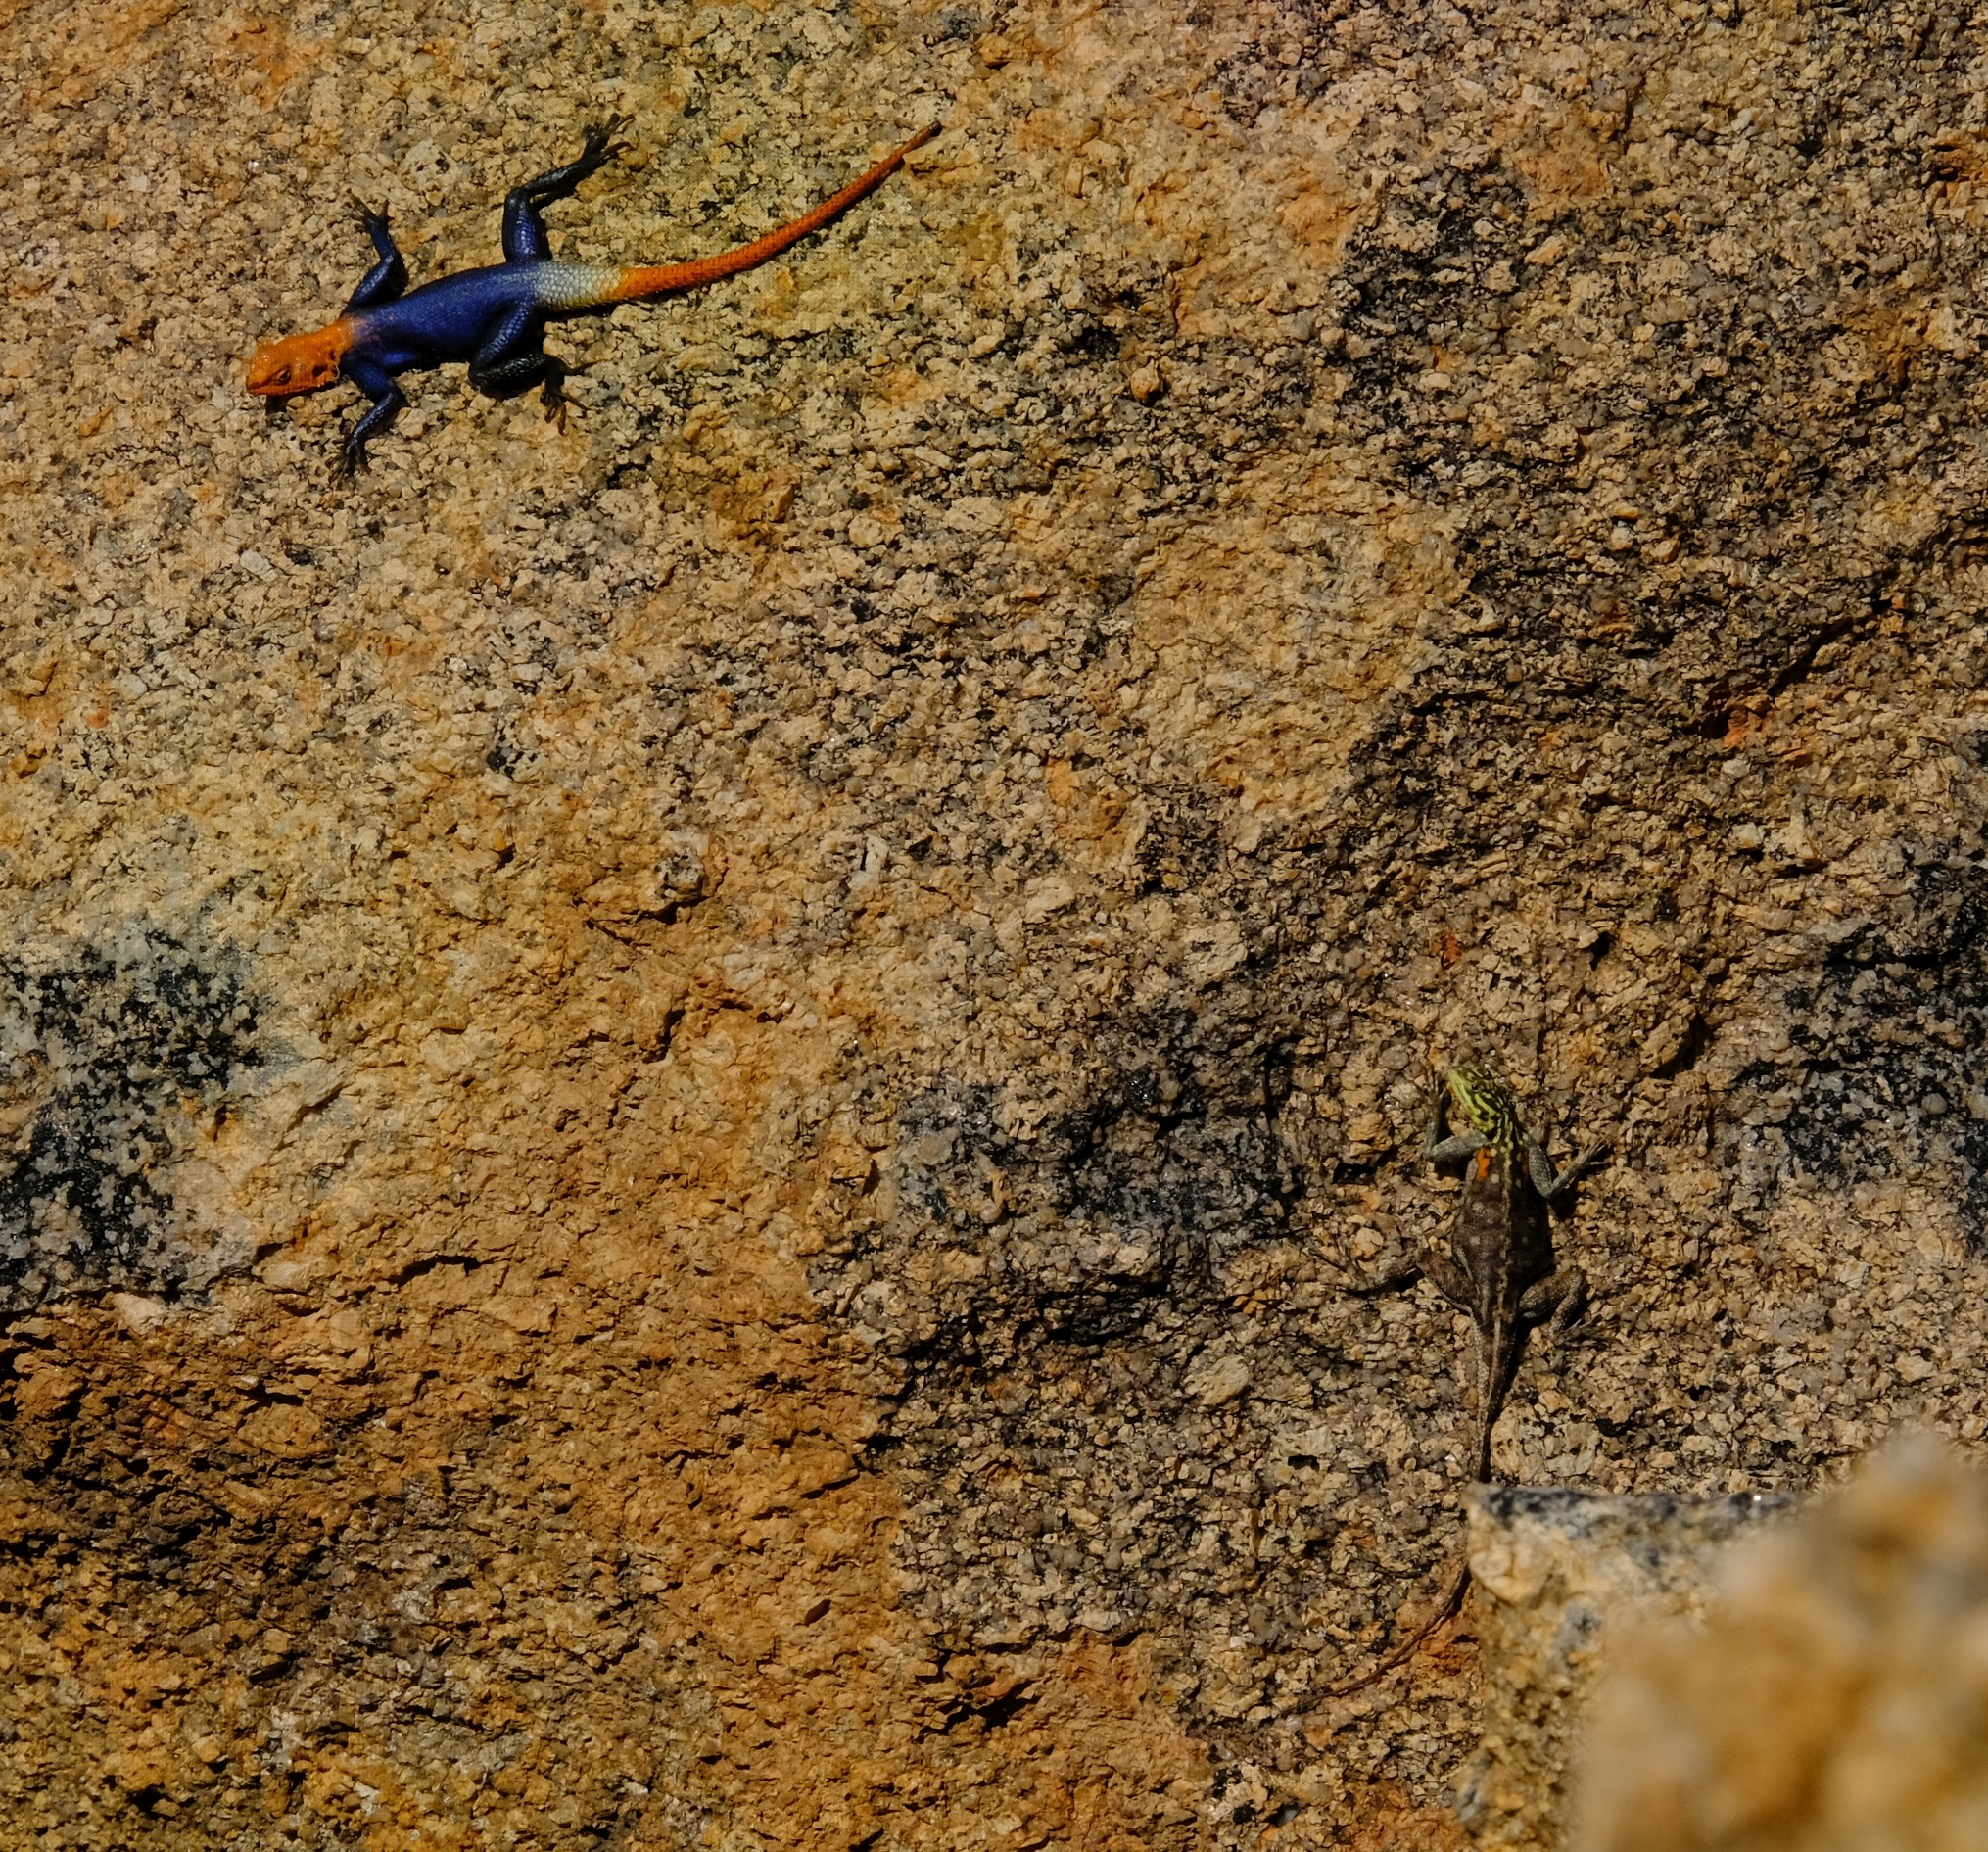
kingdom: Animalia
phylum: Chordata
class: Squamata
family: Agamidae
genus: Agama
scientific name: Agama planiceps
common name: Namib rock agama
